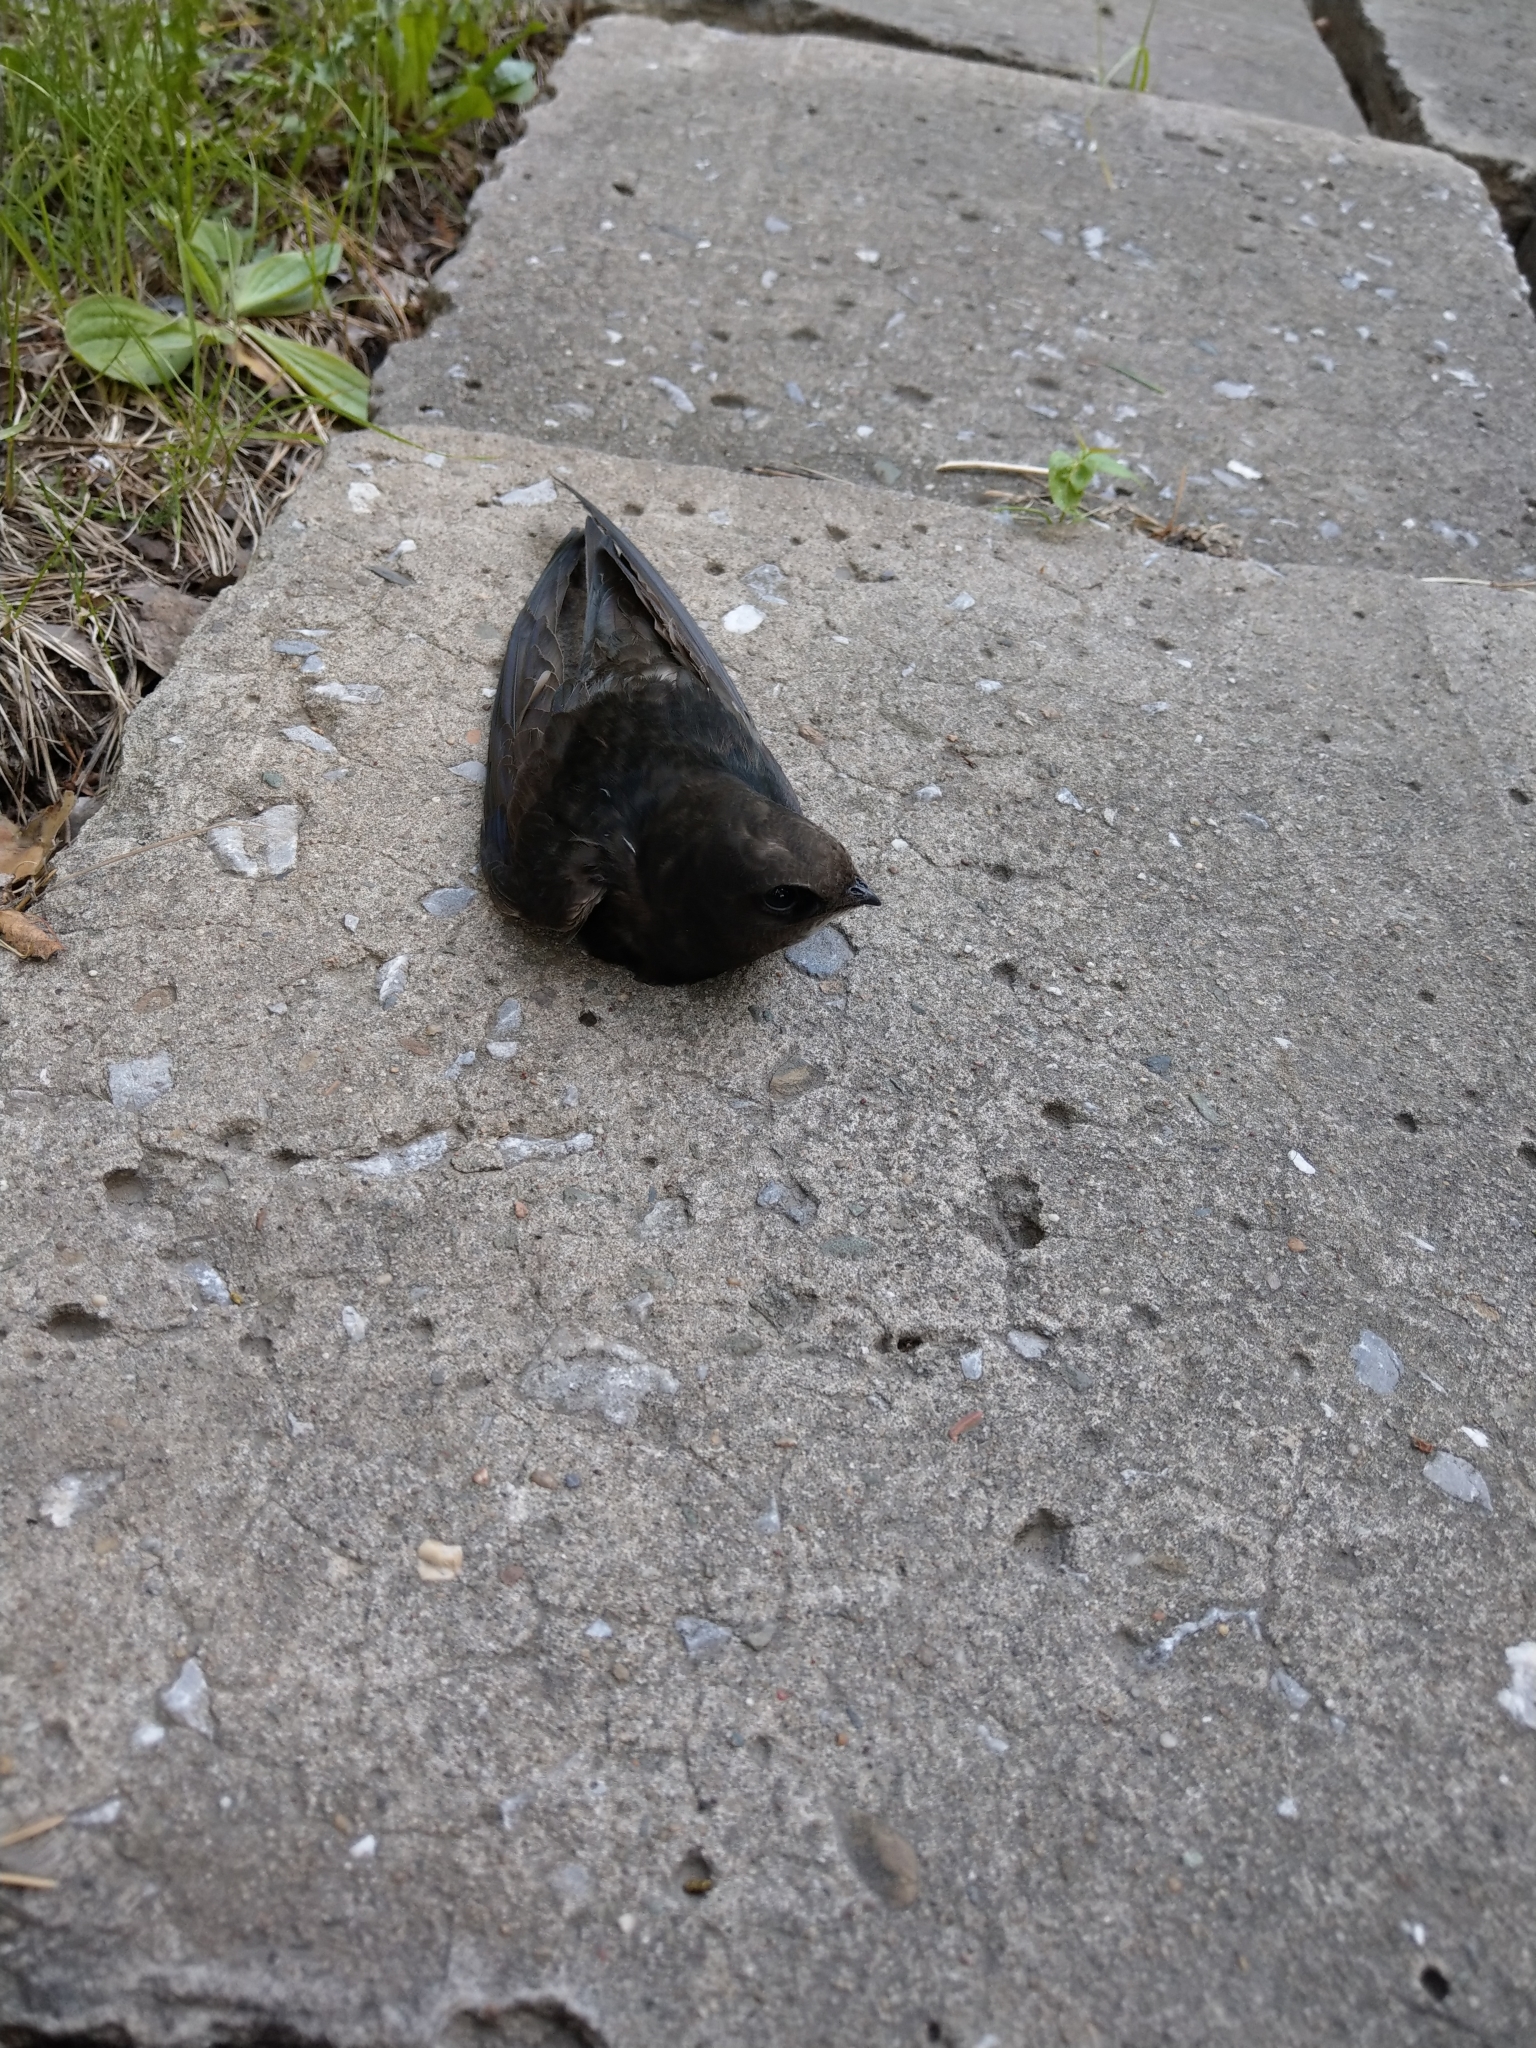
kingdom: Animalia
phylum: Chordata
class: Aves
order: Apodiformes
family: Apodidae
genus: Apus
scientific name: Apus apus
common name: Common swift
